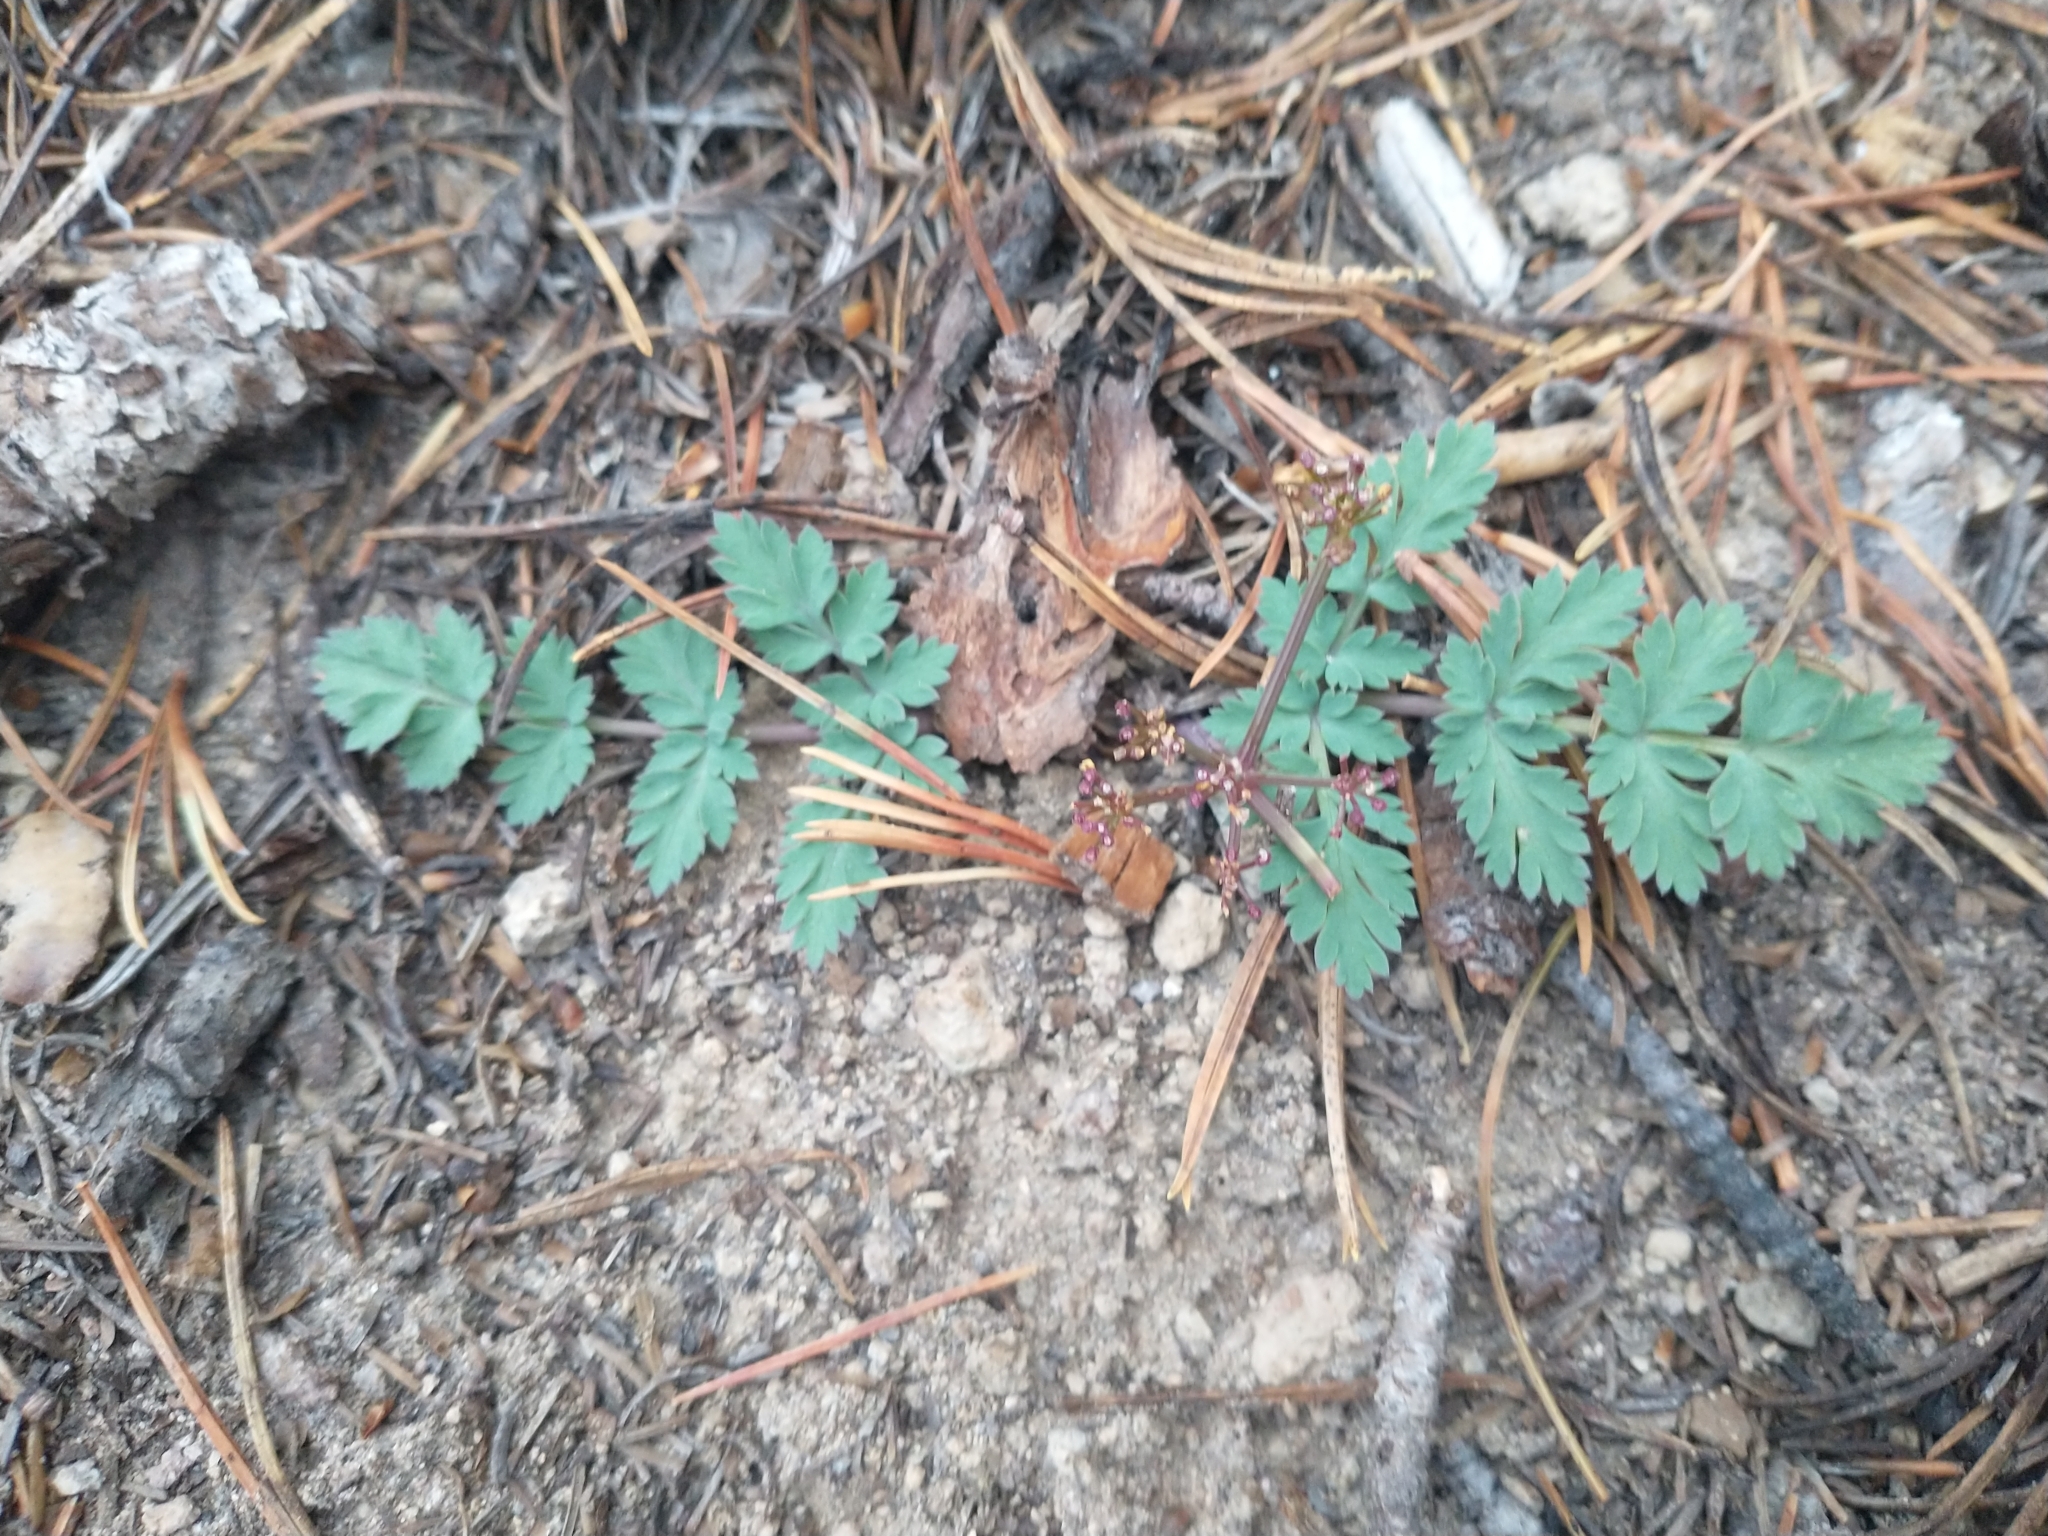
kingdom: Plantae
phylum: Tracheophyta
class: Magnoliopsida
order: Apiales
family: Apiaceae
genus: Lomatium
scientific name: Lomatium martindalei
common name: Cascade desert-parsley
